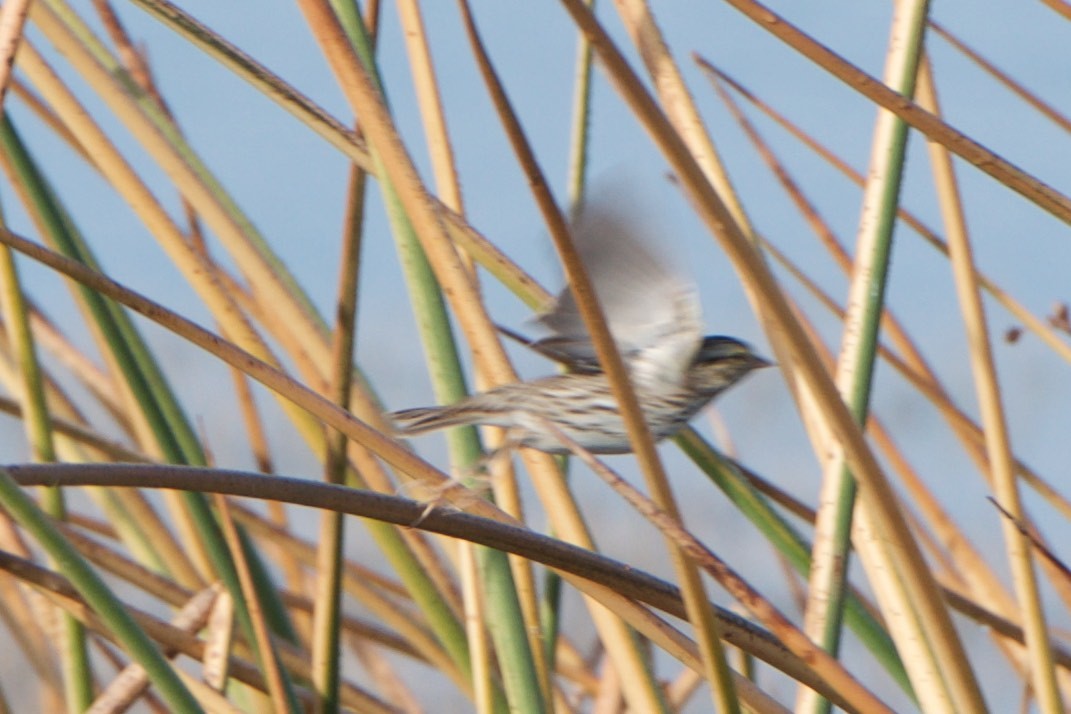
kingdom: Animalia
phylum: Chordata
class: Aves
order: Passeriformes
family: Passerellidae
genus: Passerculus
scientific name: Passerculus sandwichensis
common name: Savannah sparrow
